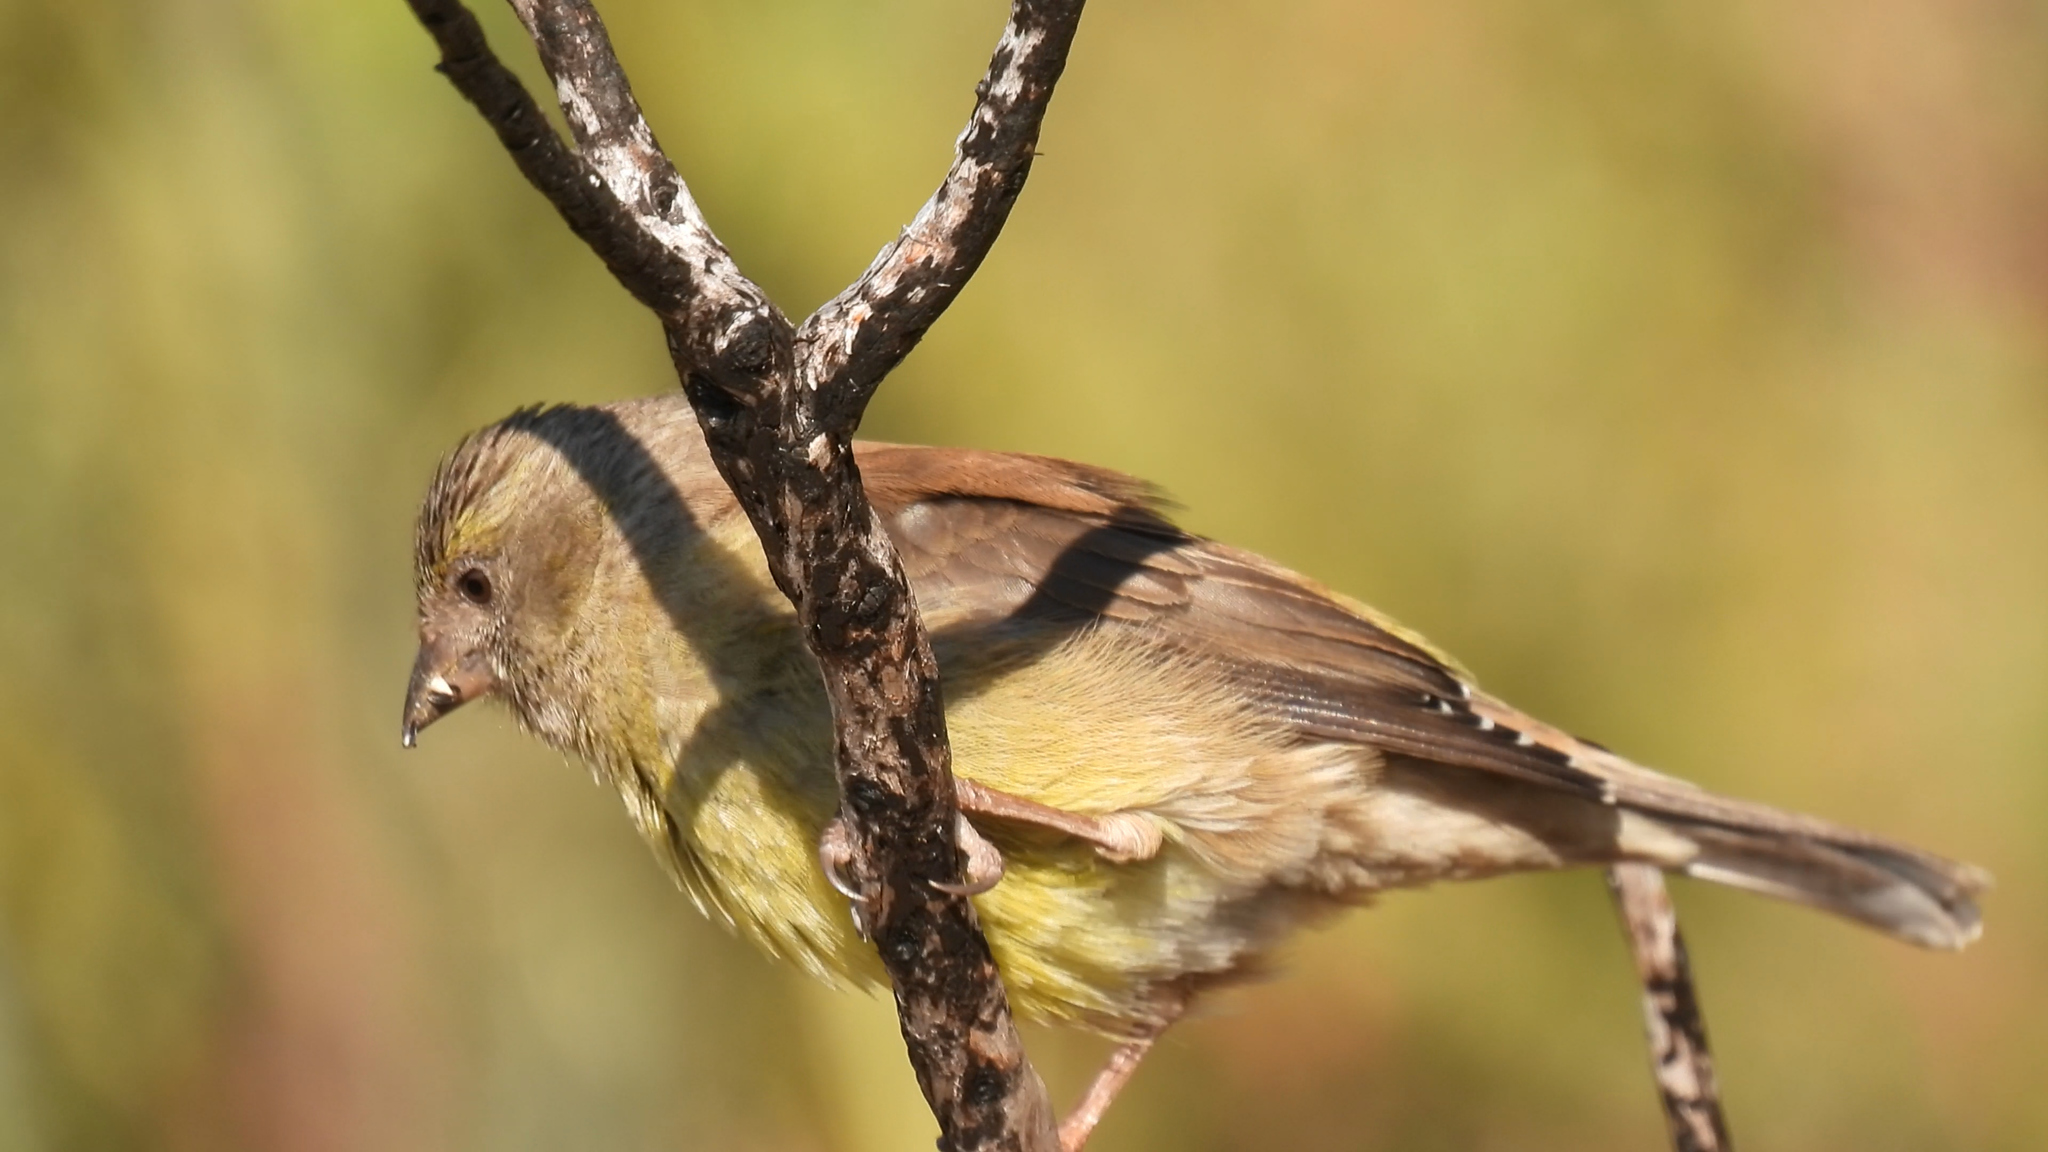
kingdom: Animalia
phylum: Chordata
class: Aves
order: Passeriformes
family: Fringillidae
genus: Crithagra
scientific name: Crithagra totta
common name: Cape siskin
